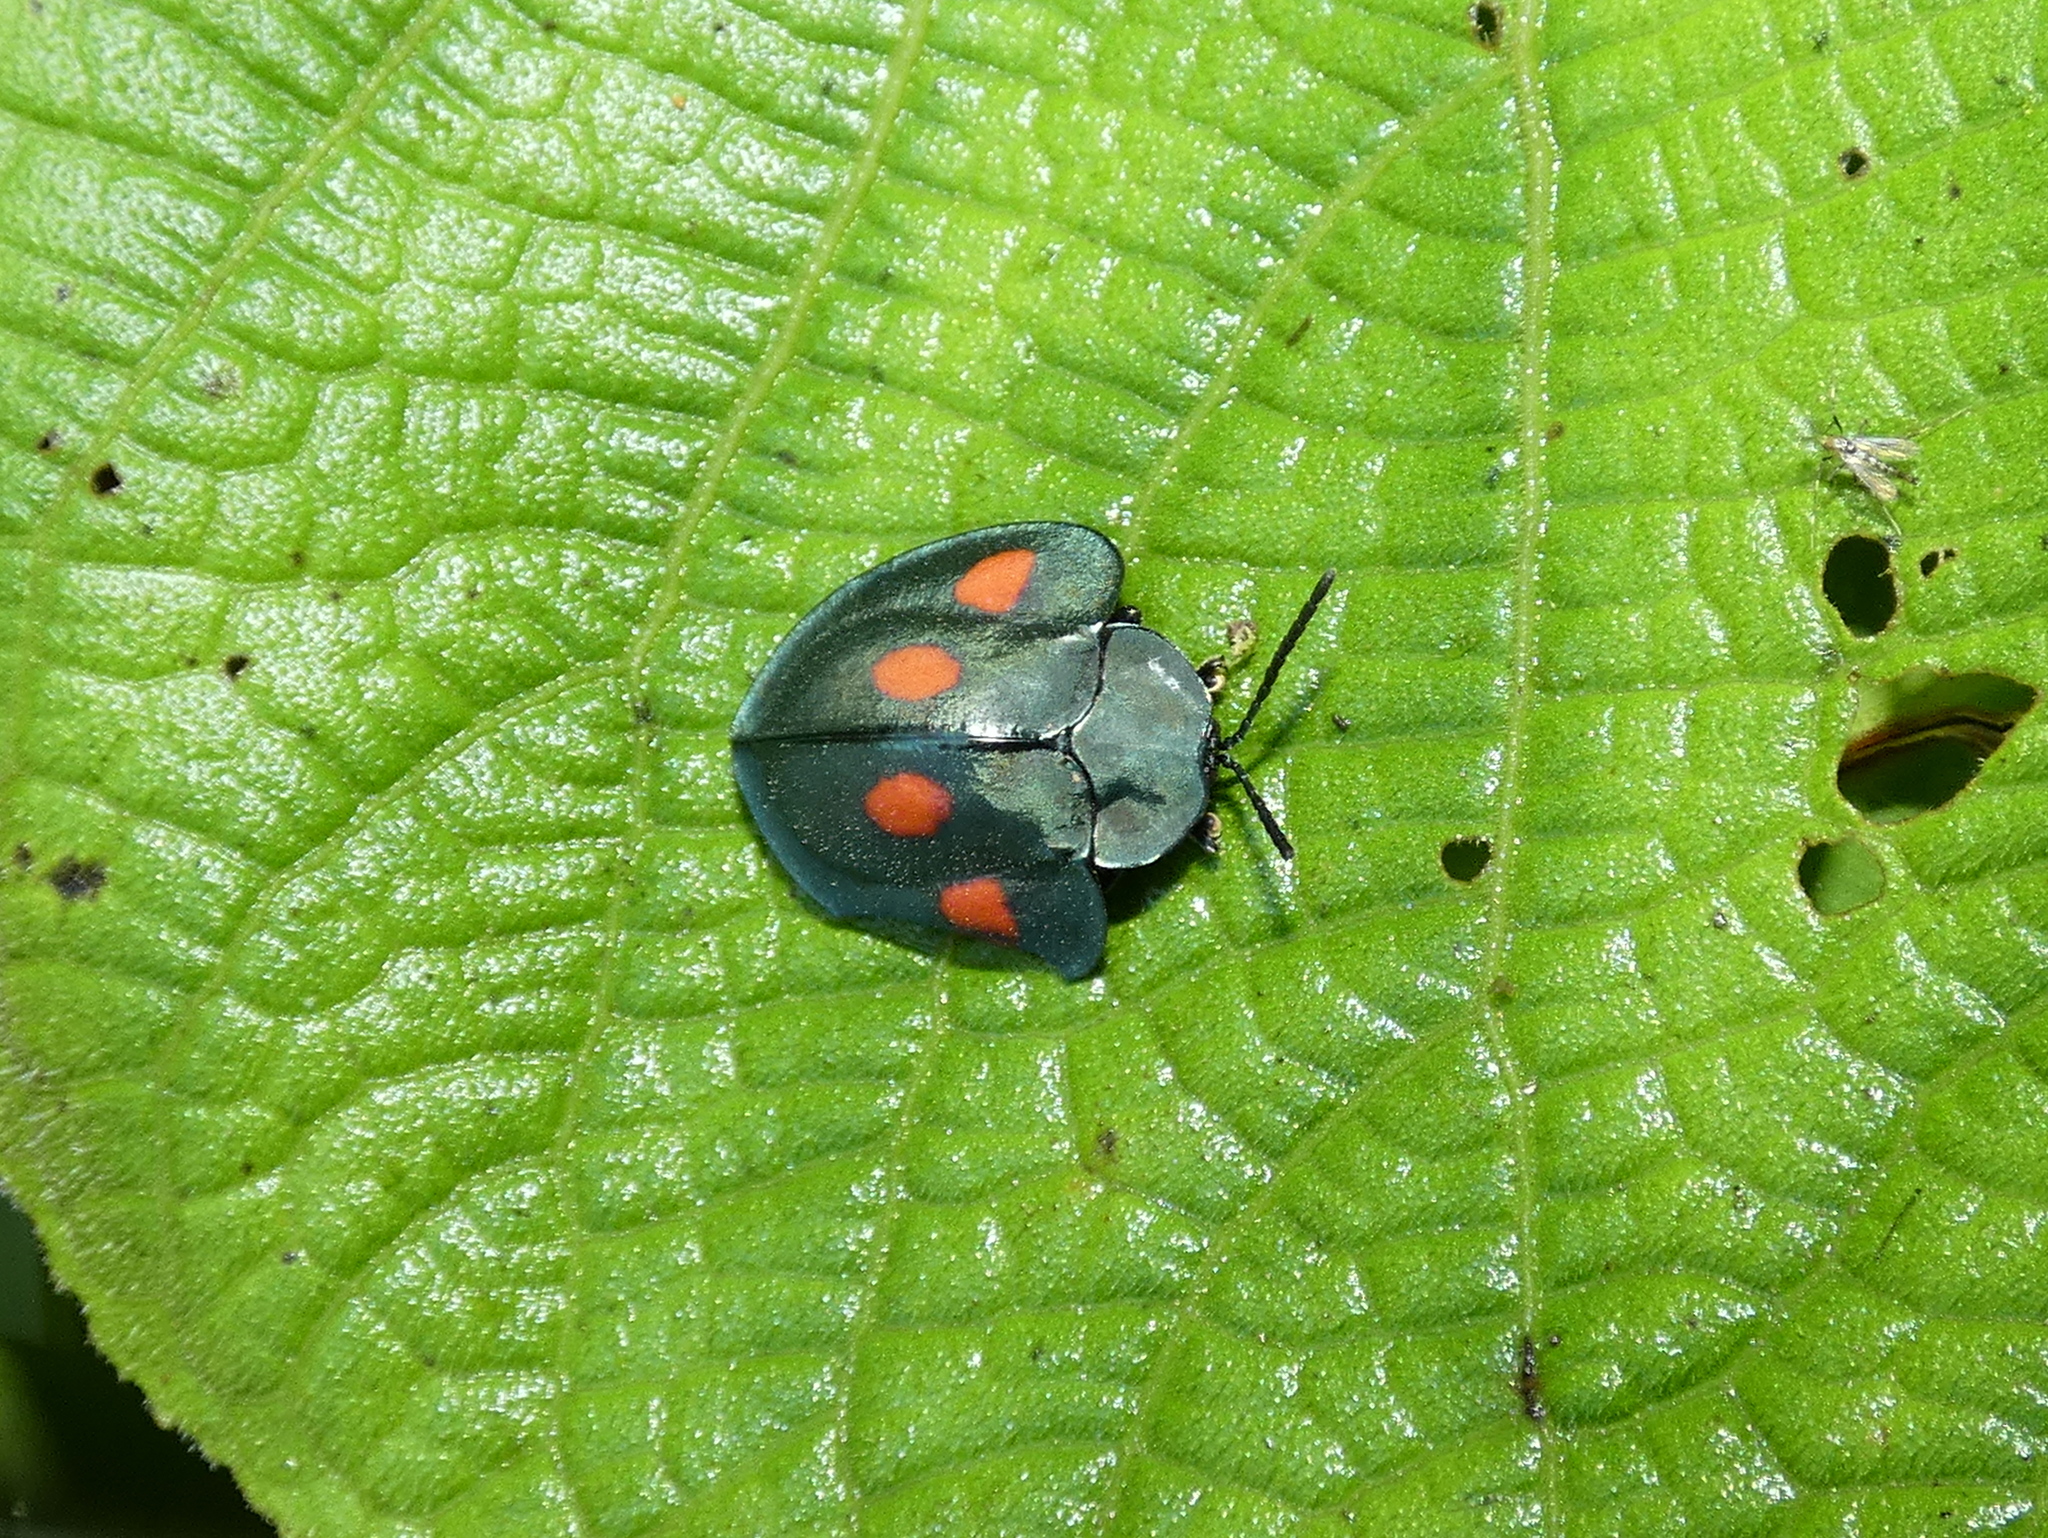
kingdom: Animalia
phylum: Arthropoda
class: Insecta
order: Coleoptera
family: Chrysomelidae
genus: Stolas
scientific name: Stolas lebasii
